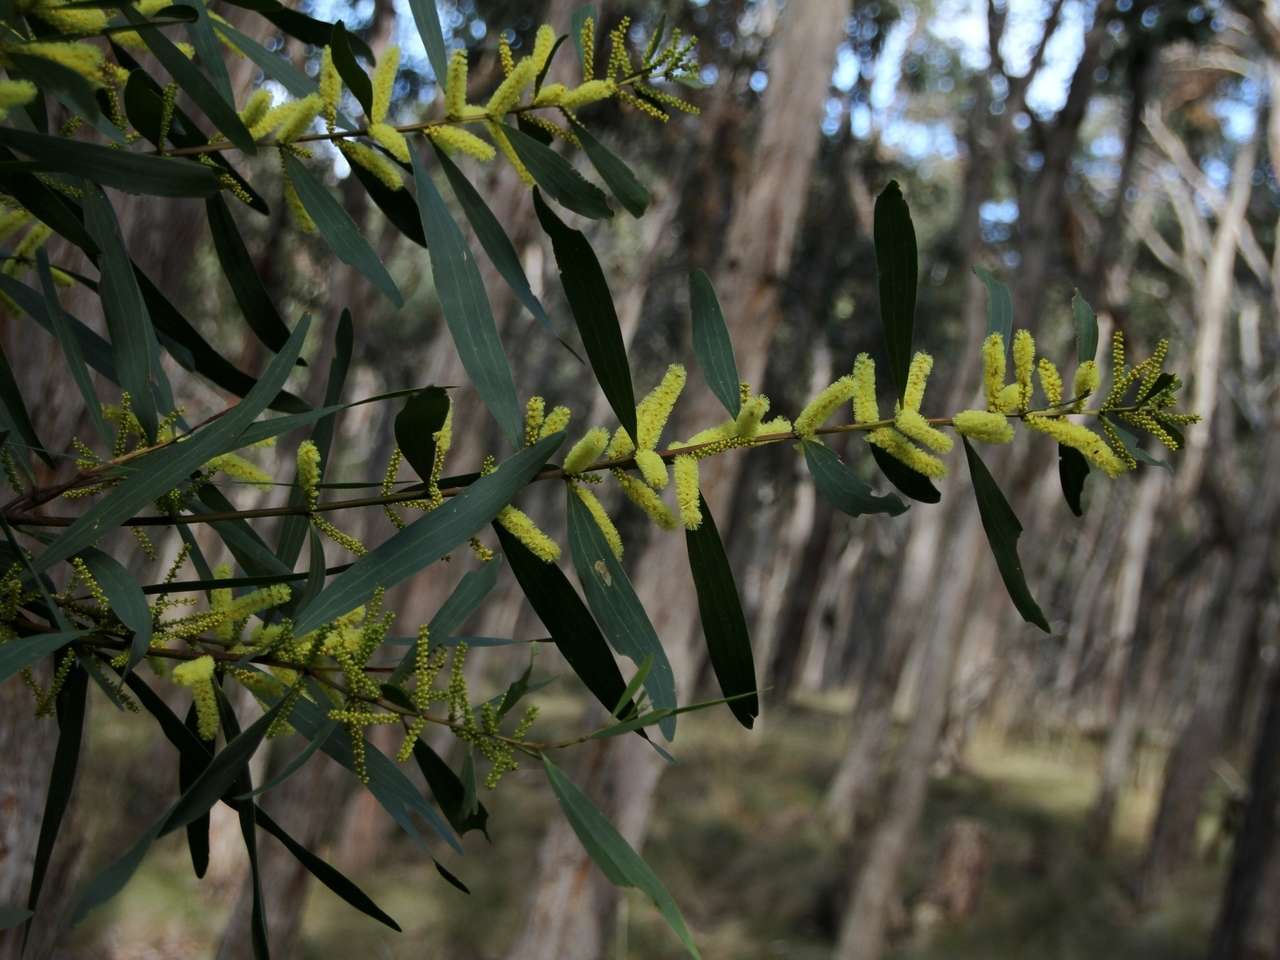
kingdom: Plantae
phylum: Tracheophyta
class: Magnoliopsida
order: Fabales
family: Fabaceae
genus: Acacia
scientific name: Acacia longifolia
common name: Sydney golden wattle
